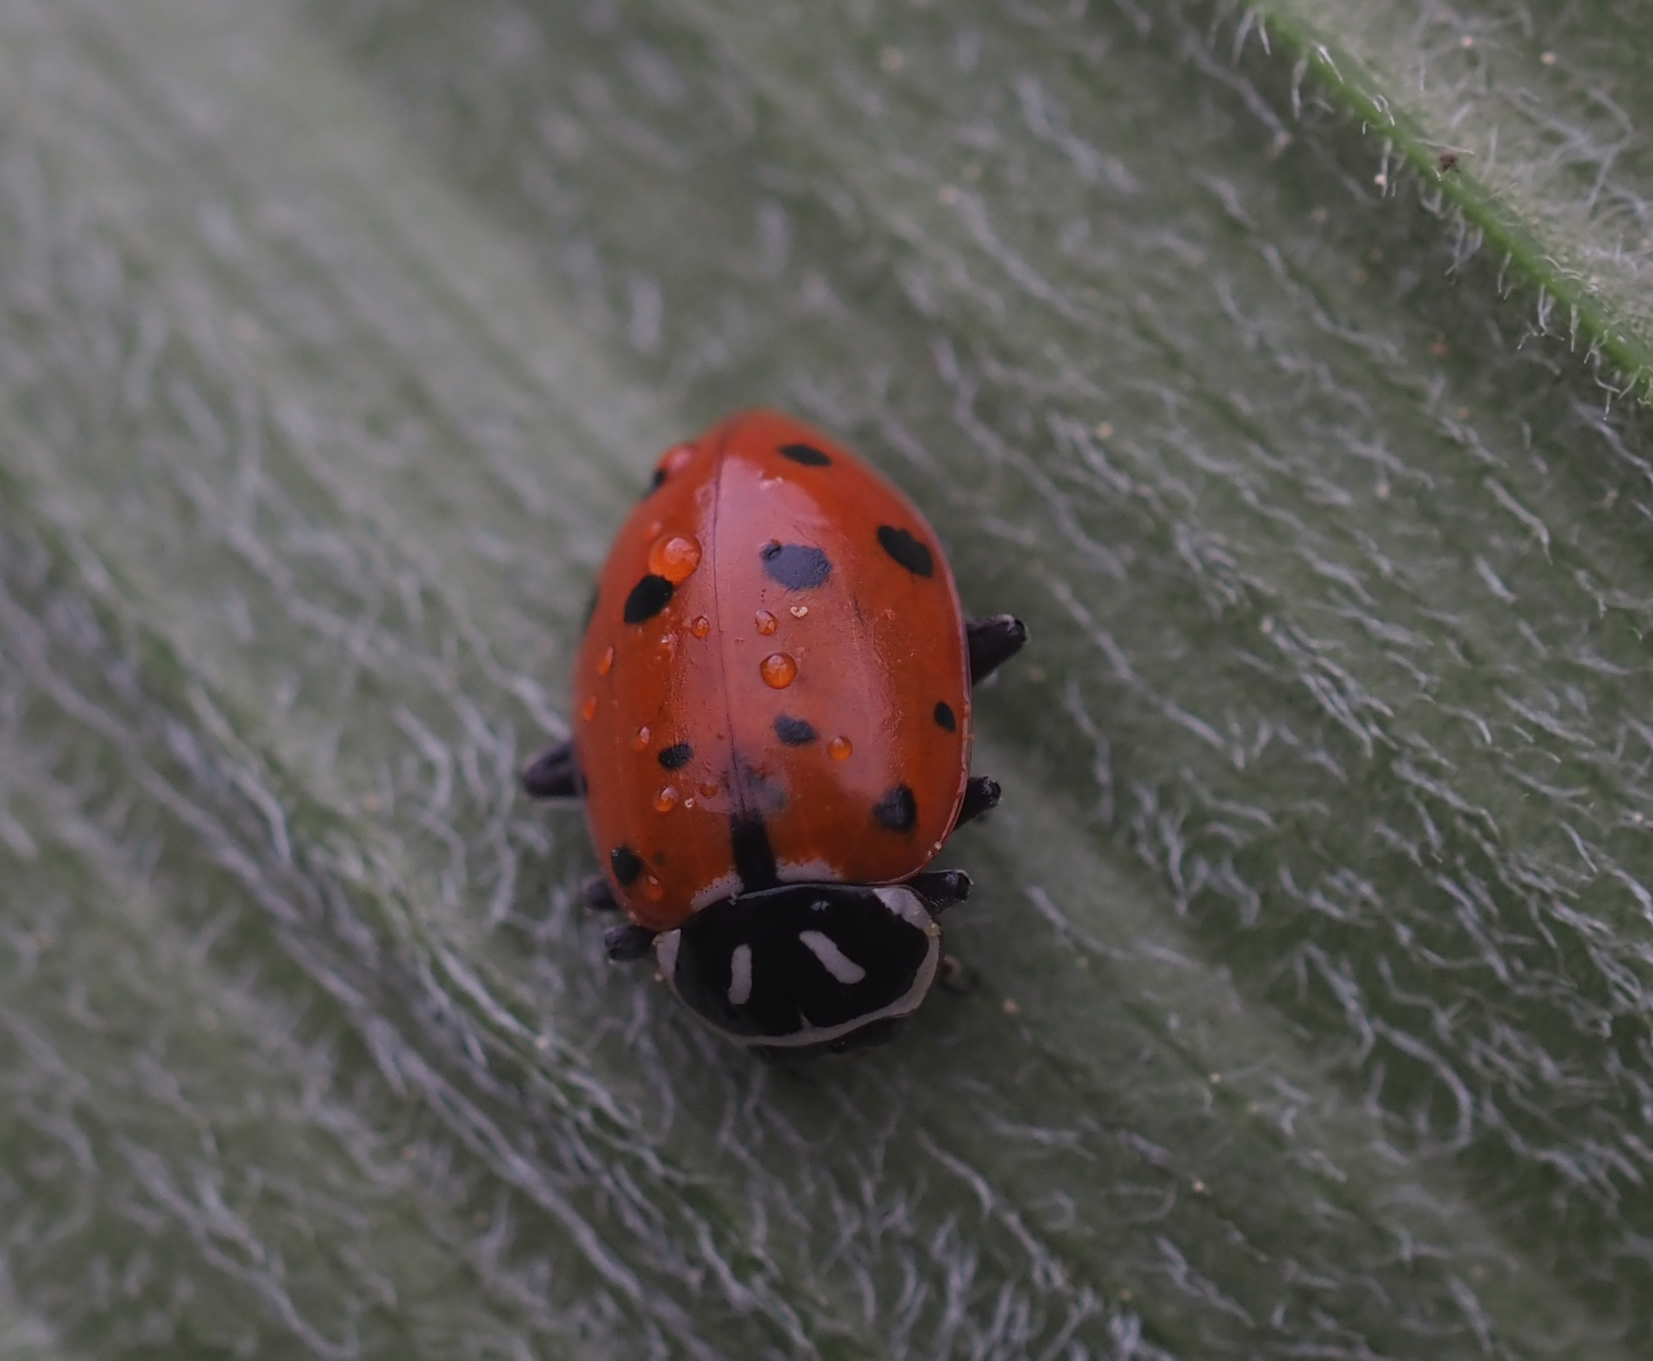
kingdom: Animalia
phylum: Arthropoda
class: Insecta
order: Coleoptera
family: Coccinellidae
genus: Hippodamia
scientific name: Hippodamia convergens
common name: Convergent lady beetle
